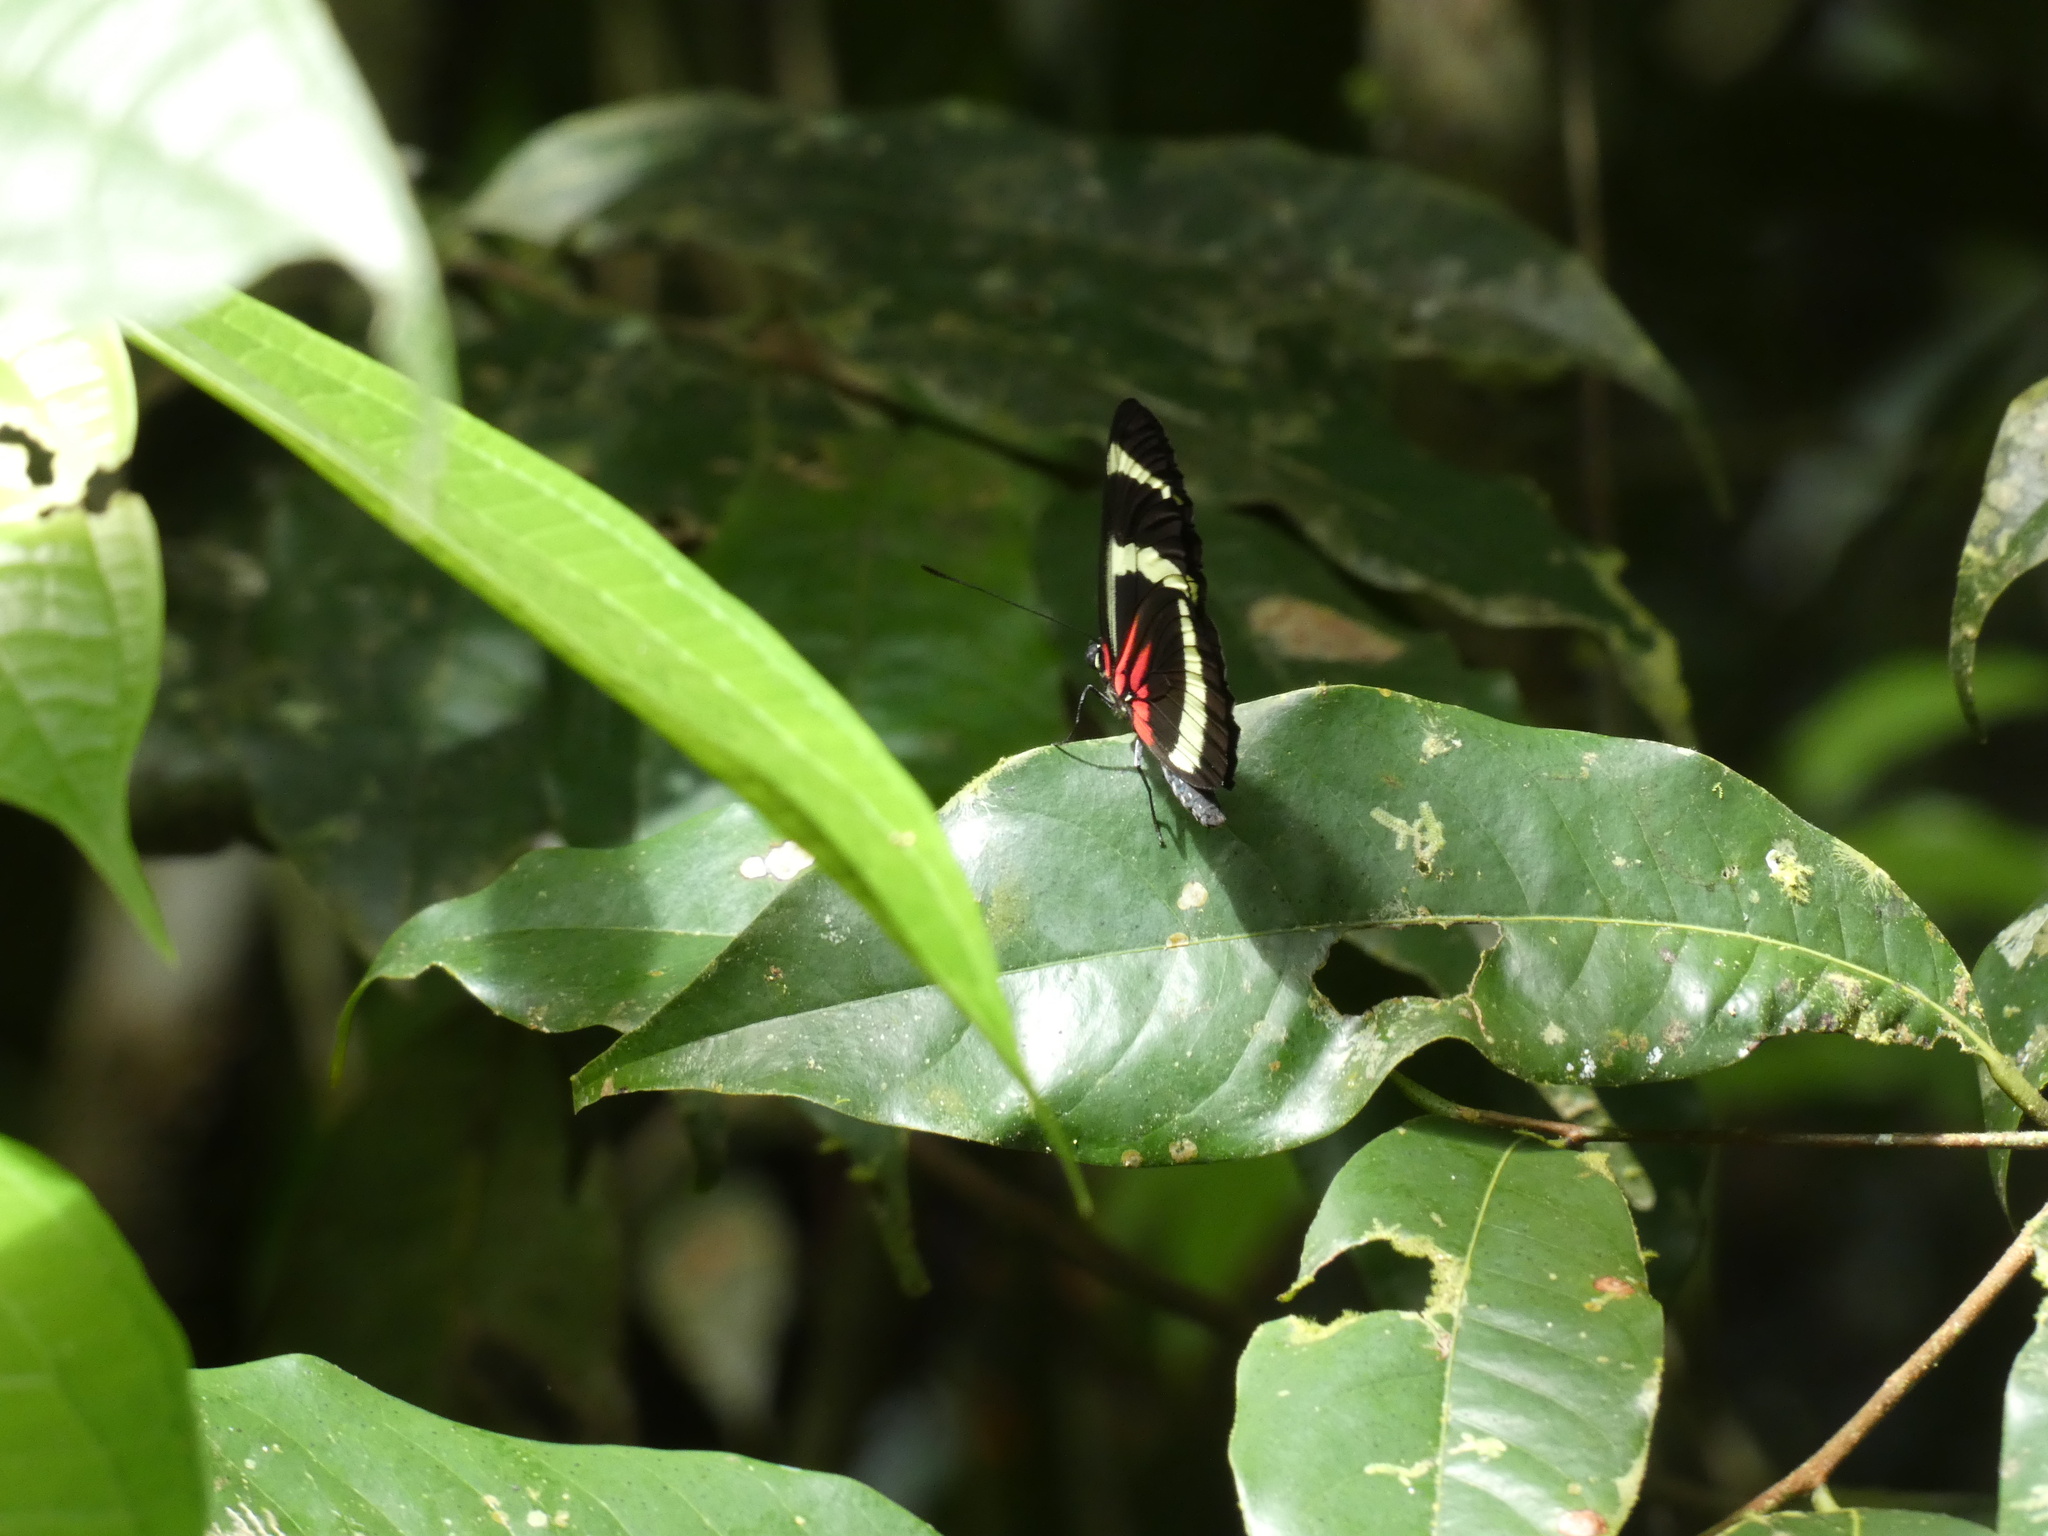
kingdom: Animalia
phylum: Arthropoda
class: Insecta
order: Lepidoptera
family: Nymphalidae
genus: Heliconius
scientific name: Heliconius hewitsoni
